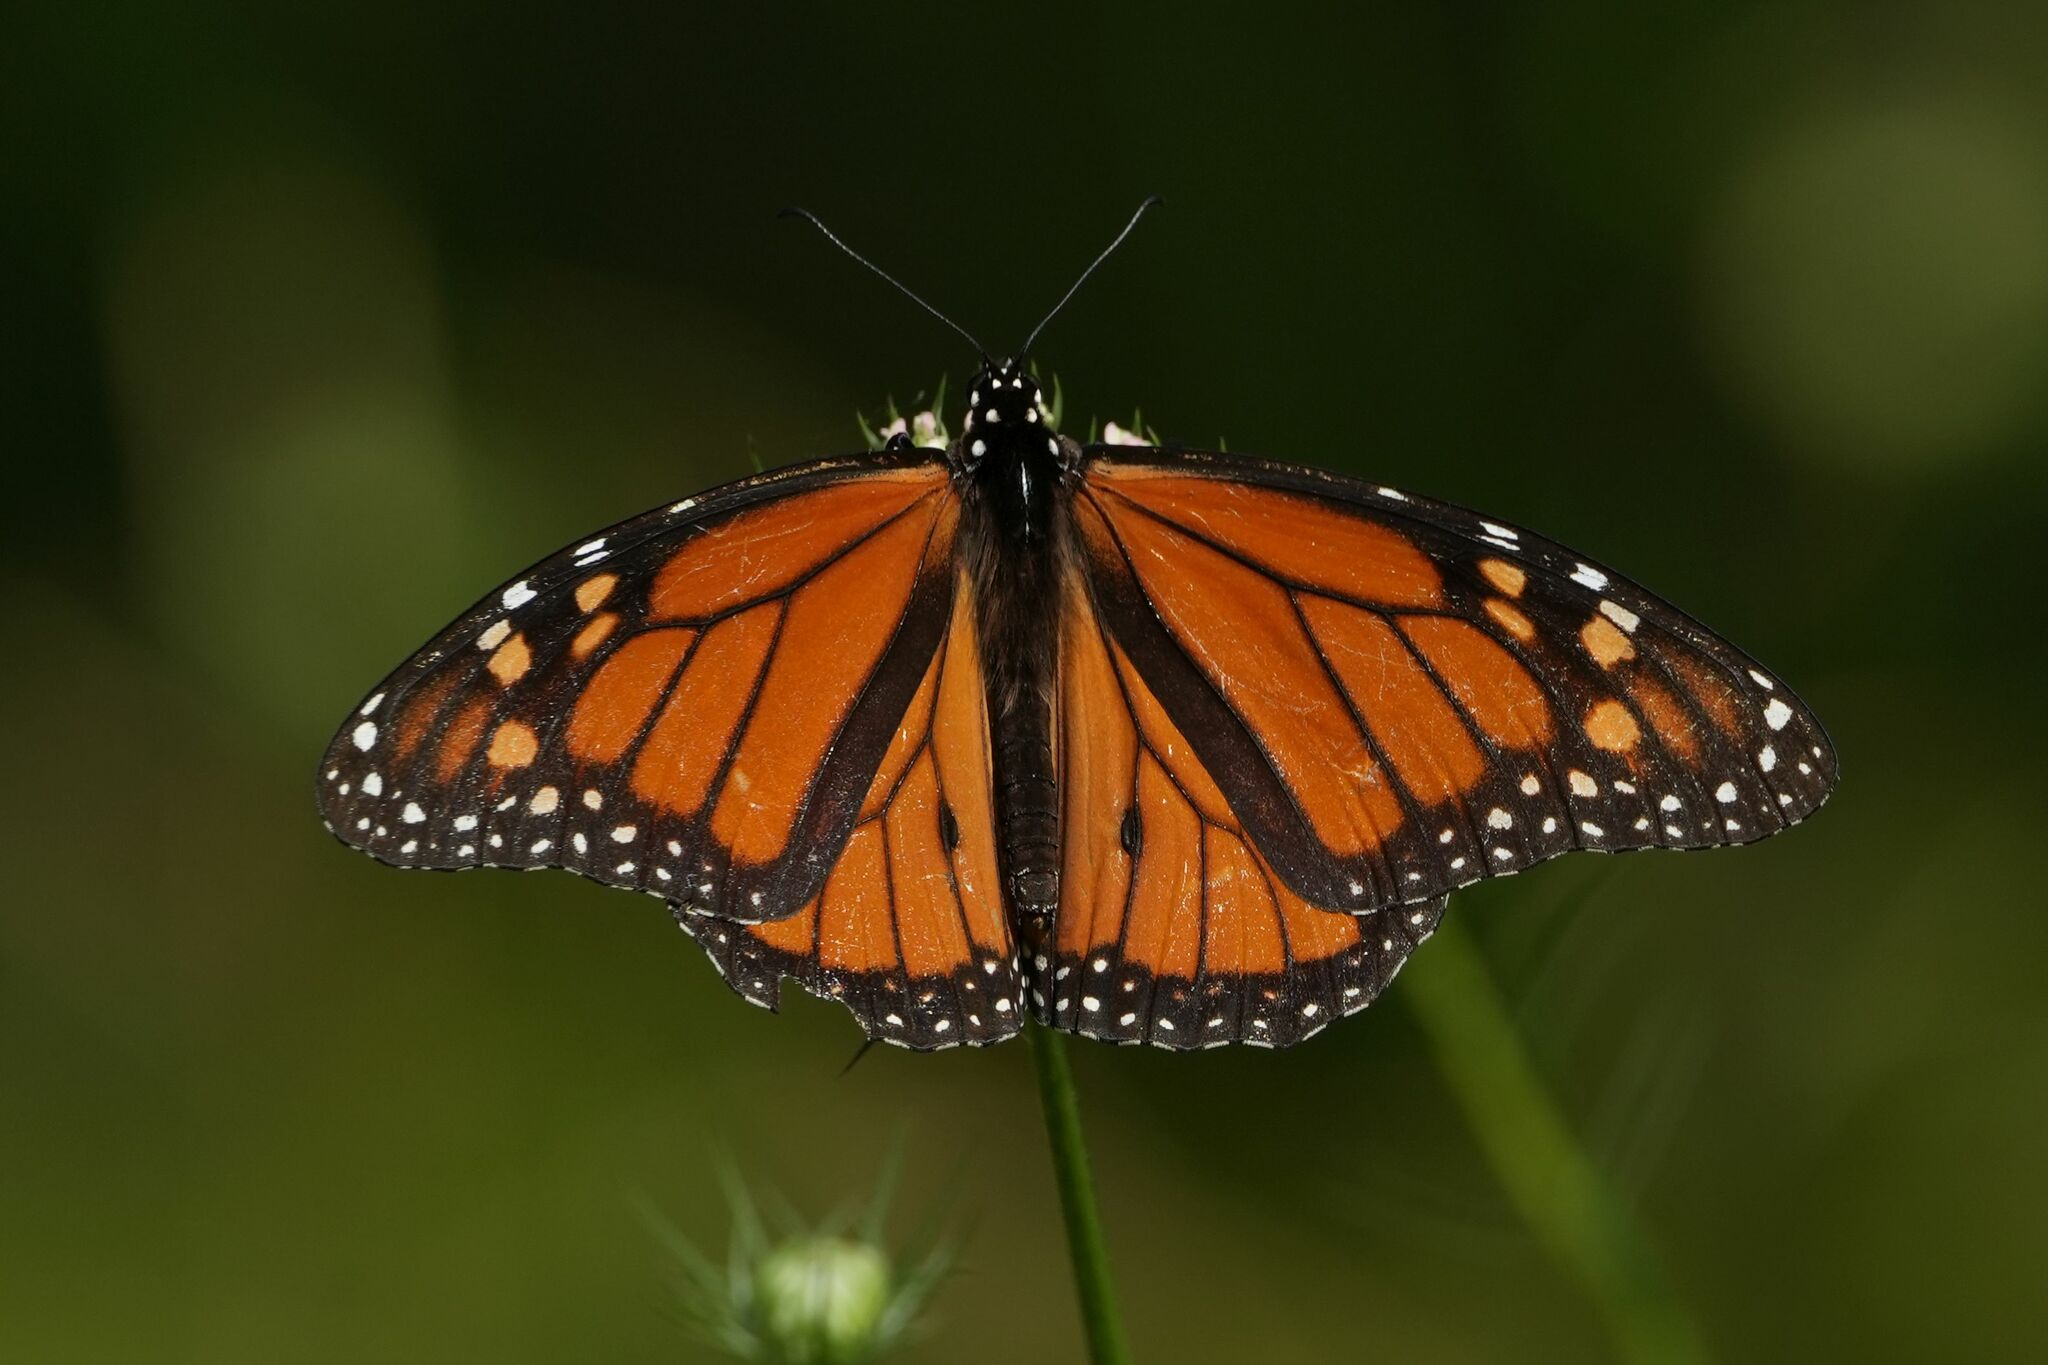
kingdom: Animalia
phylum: Arthropoda
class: Insecta
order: Lepidoptera
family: Nymphalidae
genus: Danaus
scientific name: Danaus plexippus
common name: Monarch
